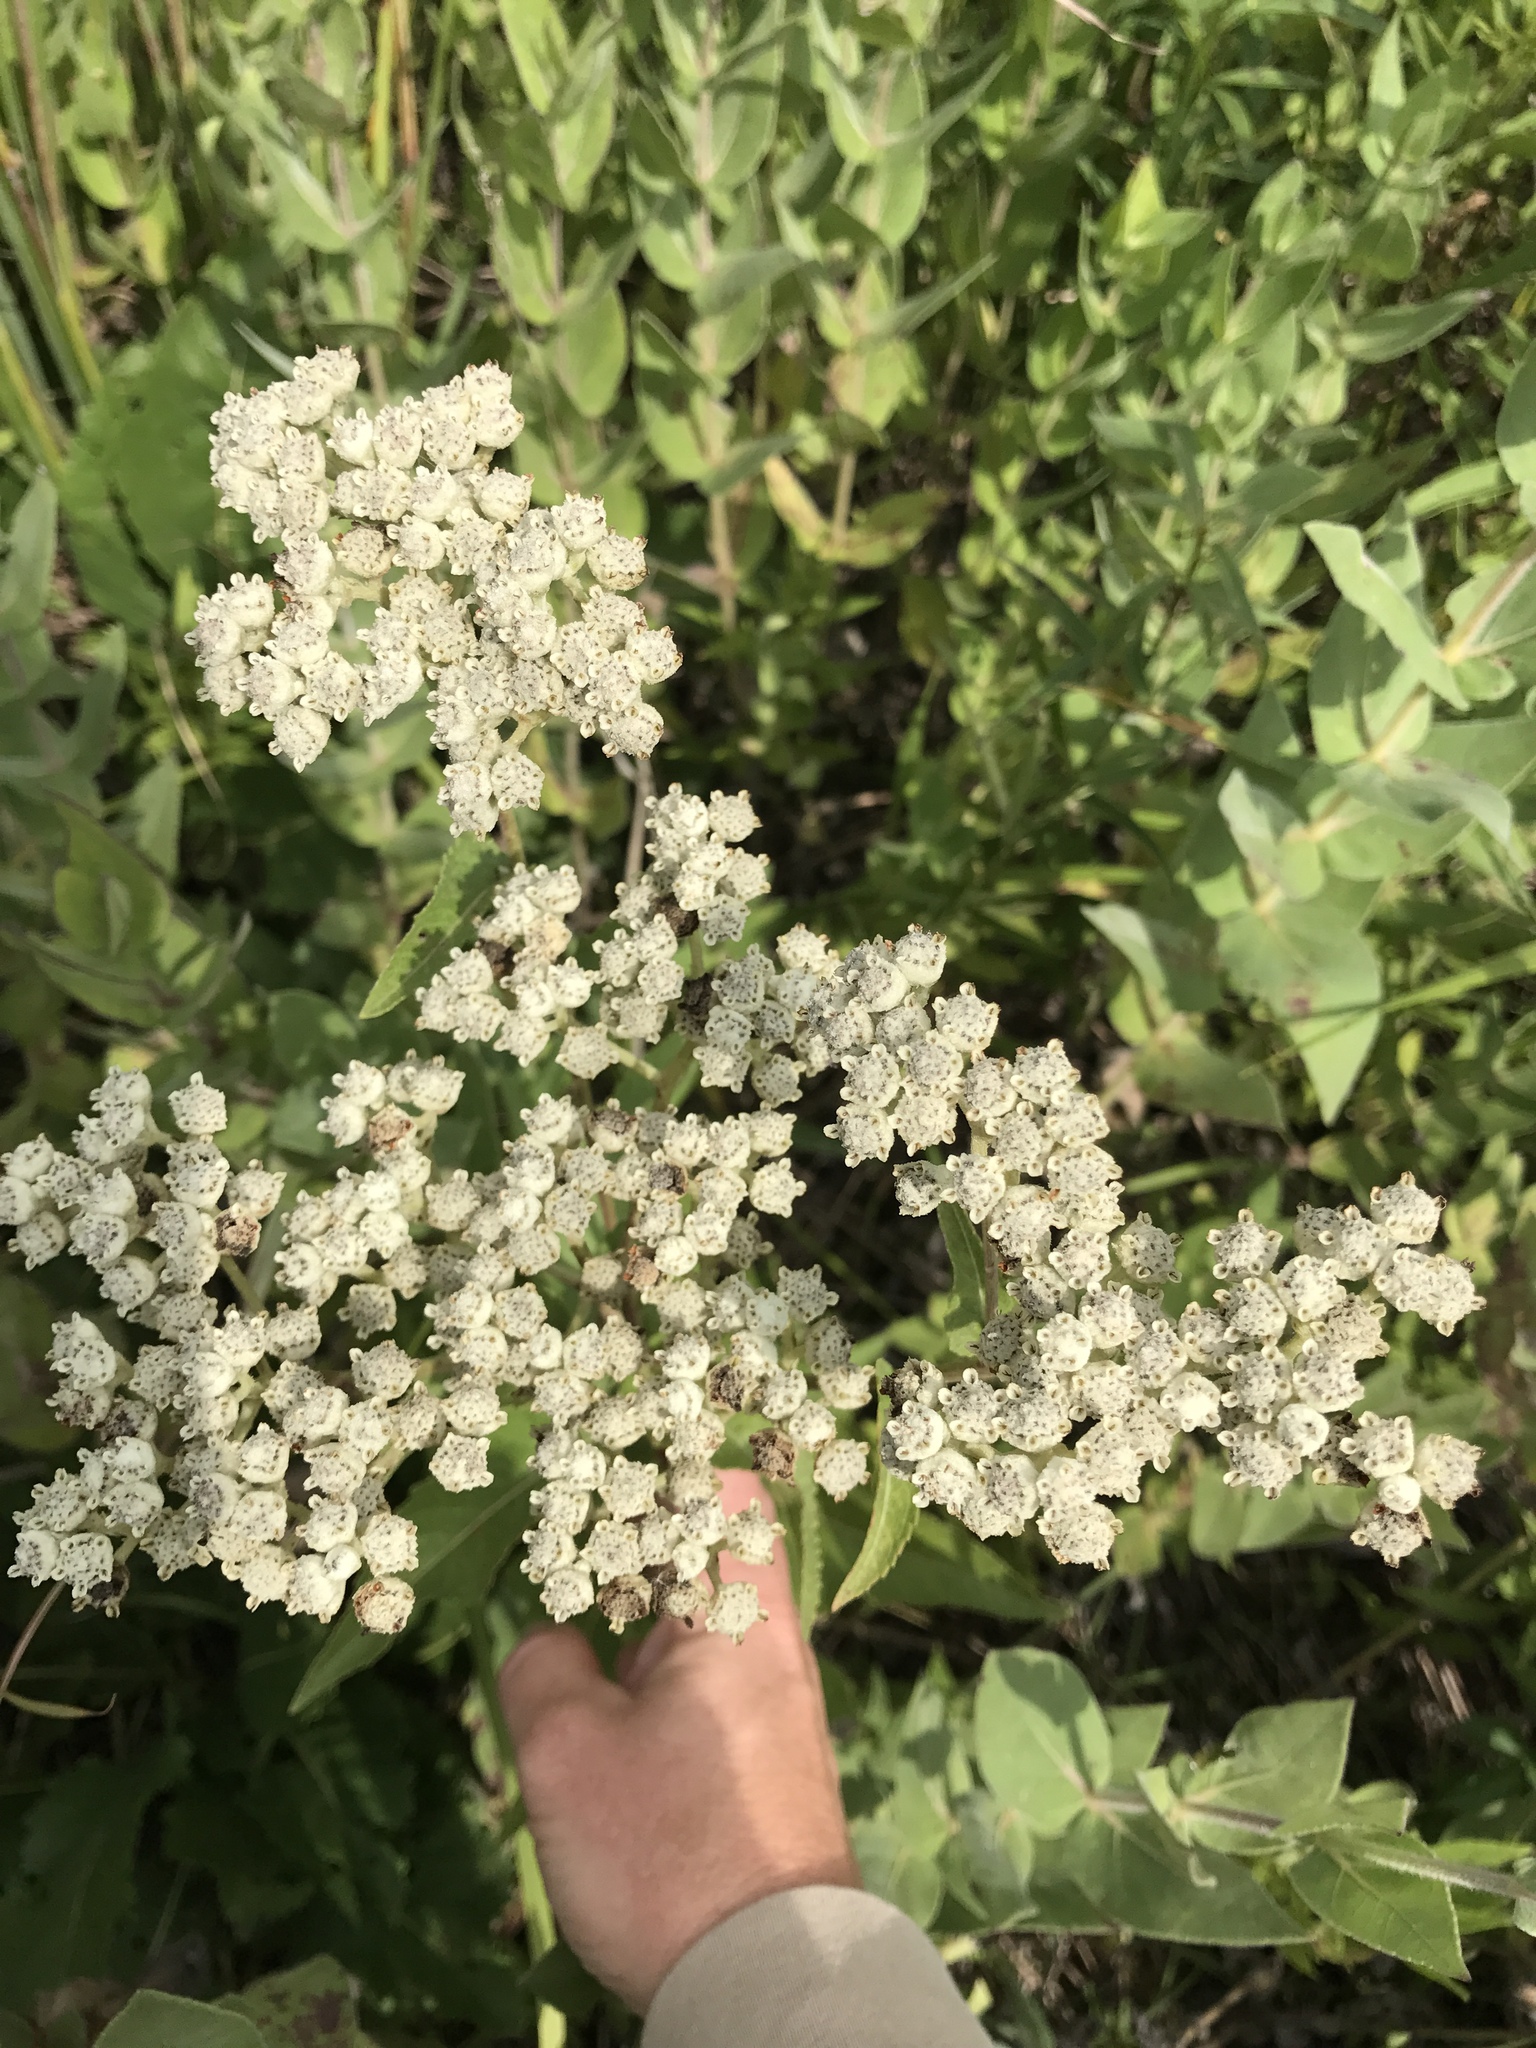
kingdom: Plantae
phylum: Tracheophyta
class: Magnoliopsida
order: Asterales
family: Asteraceae
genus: Parthenium
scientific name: Parthenium integrifolium
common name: American feverfew
